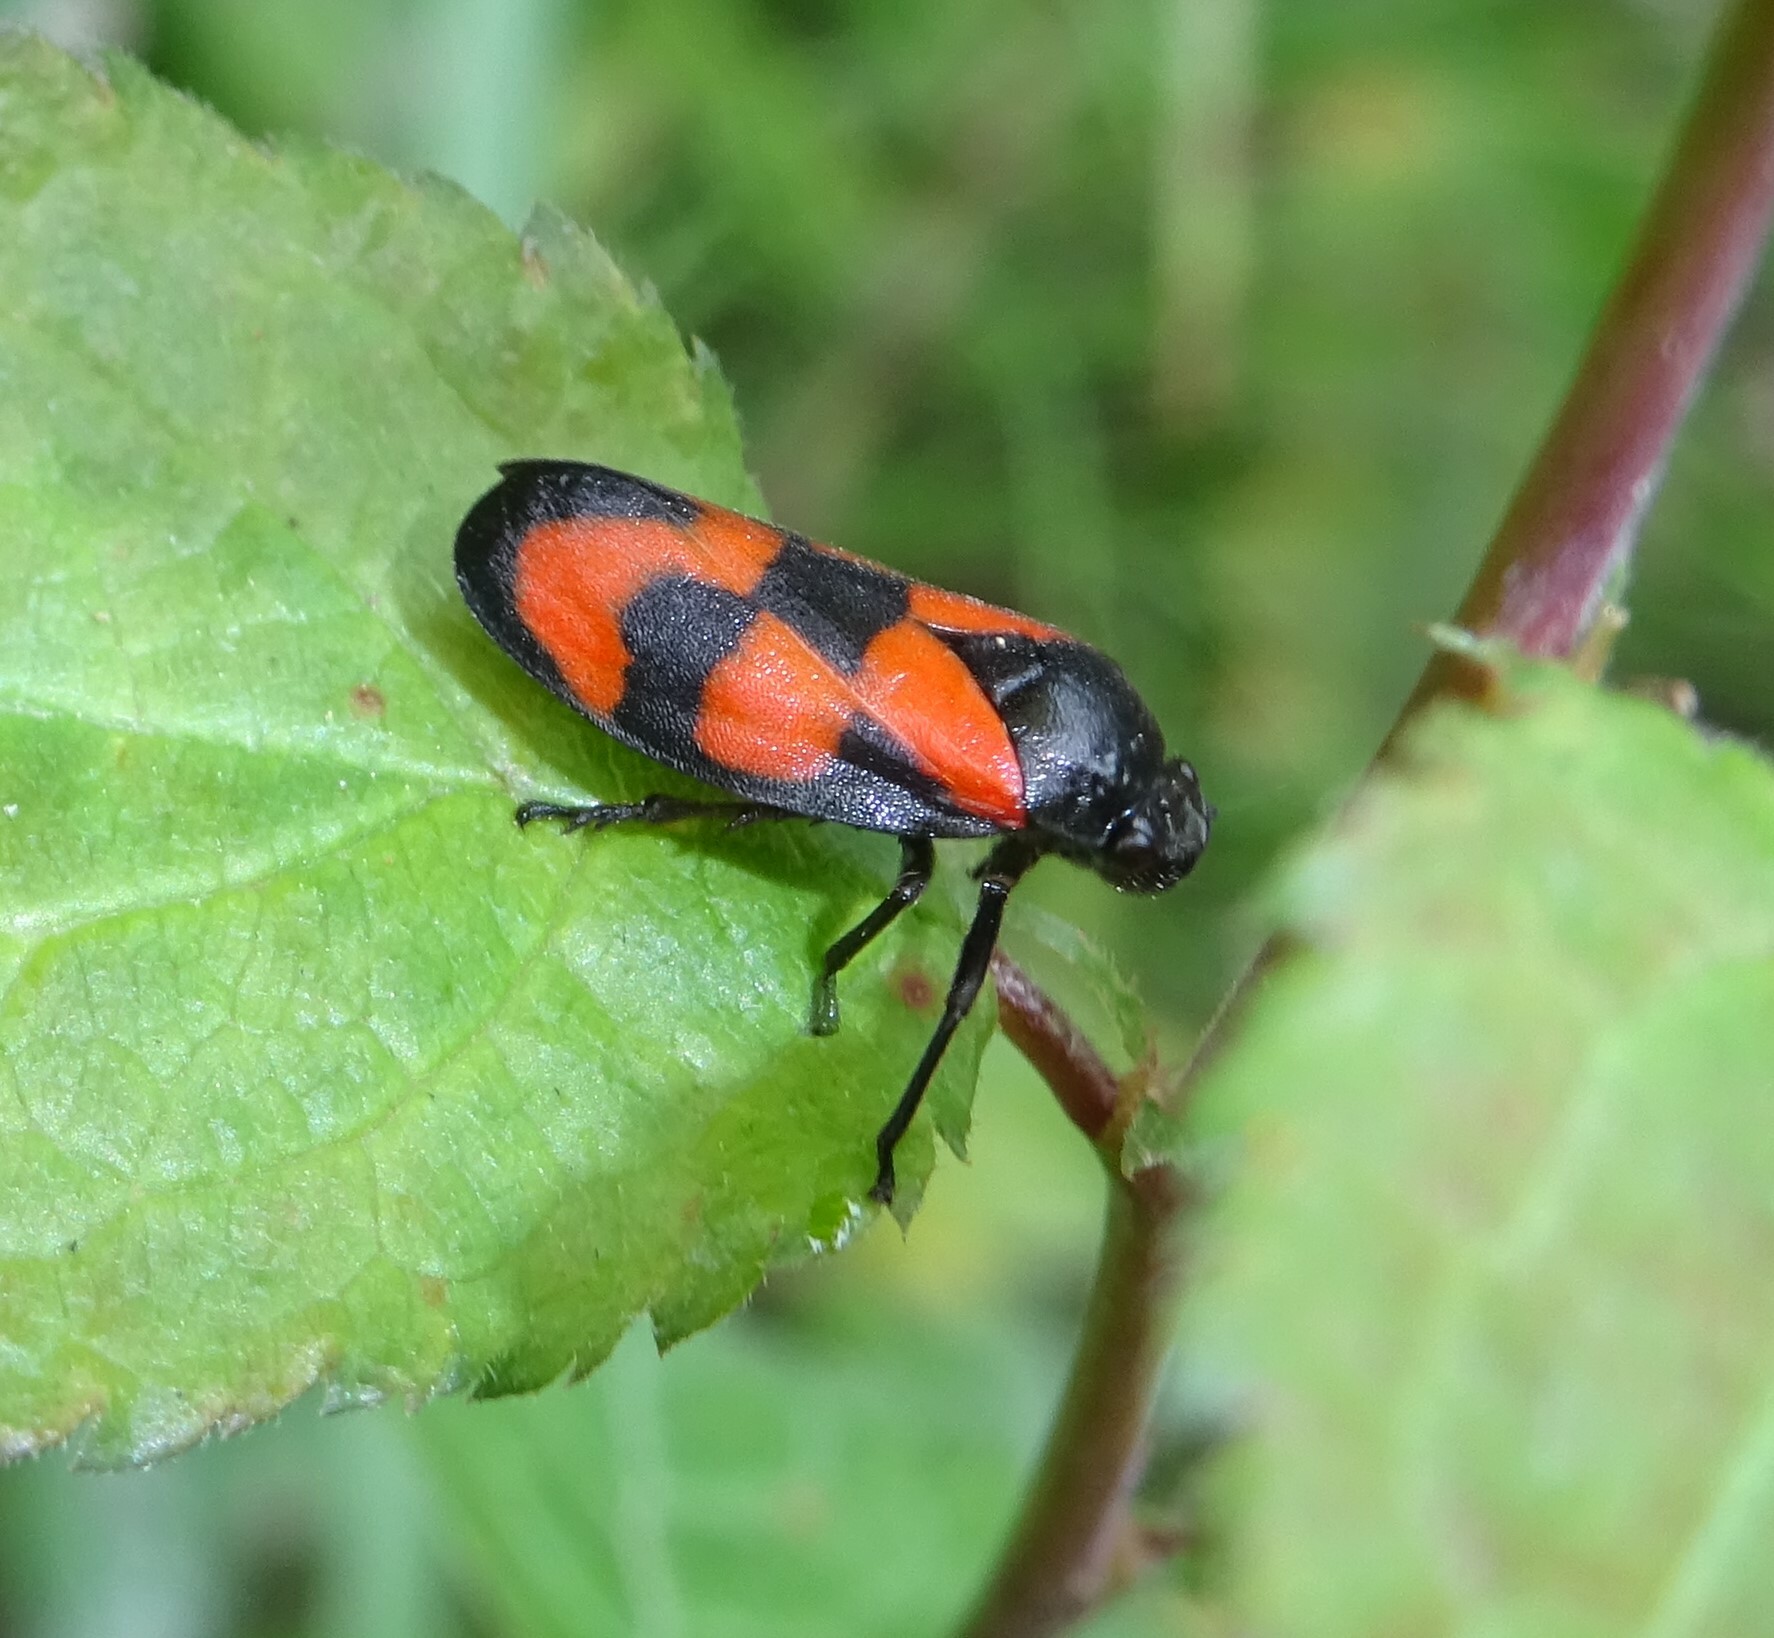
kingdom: Animalia
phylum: Arthropoda
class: Insecta
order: Hemiptera
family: Cercopidae
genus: Cercopis
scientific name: Cercopis vulnerata
